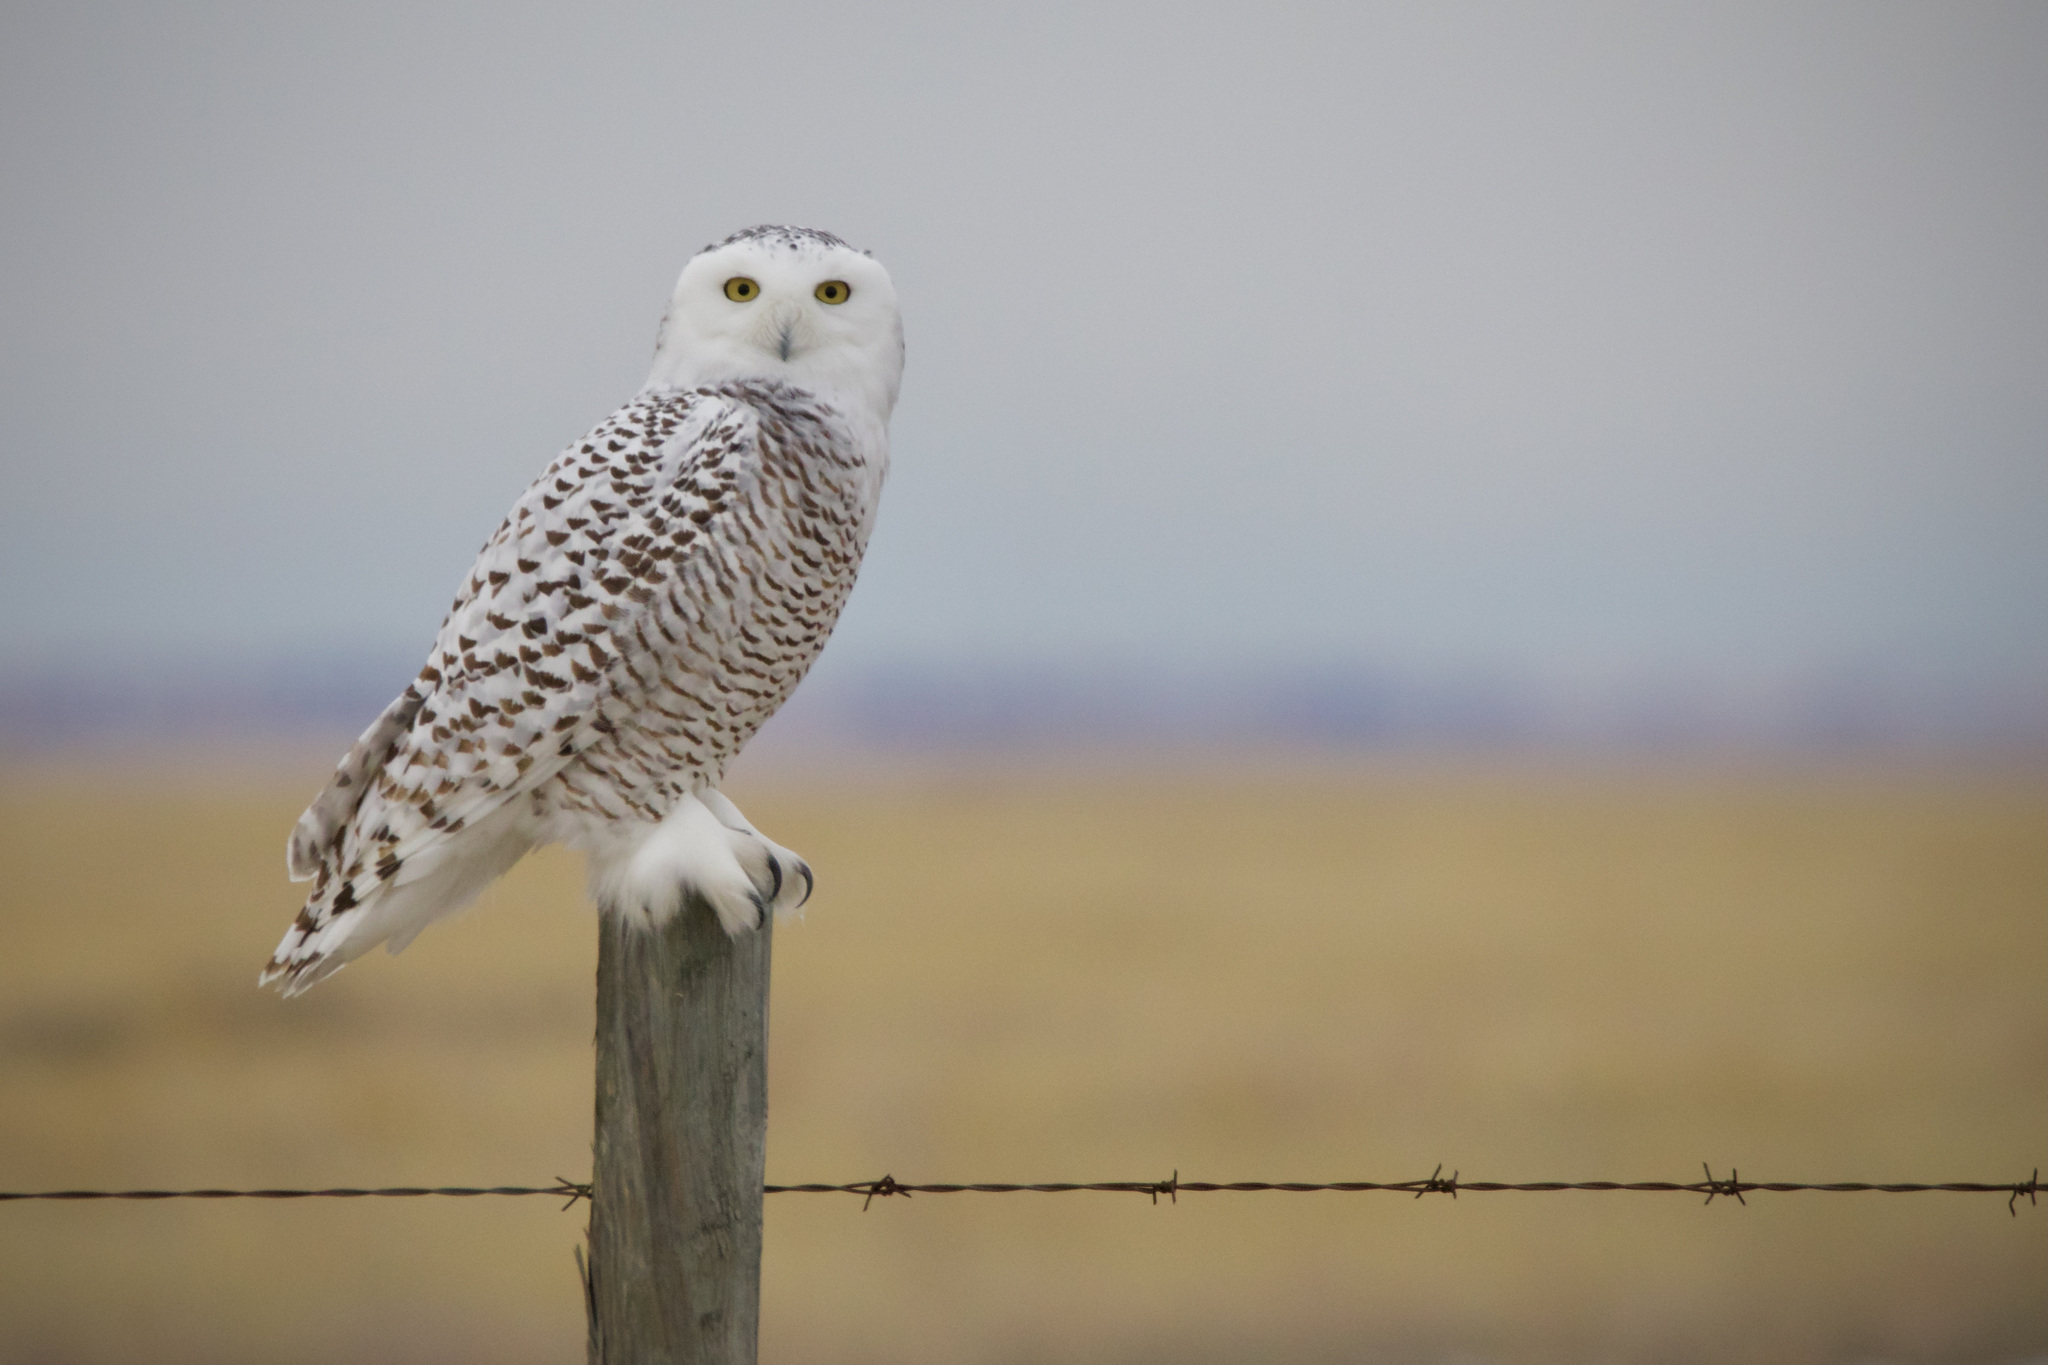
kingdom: Animalia
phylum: Chordata
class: Aves
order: Strigiformes
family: Strigidae
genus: Bubo
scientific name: Bubo scandiacus
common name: Snowy owl
